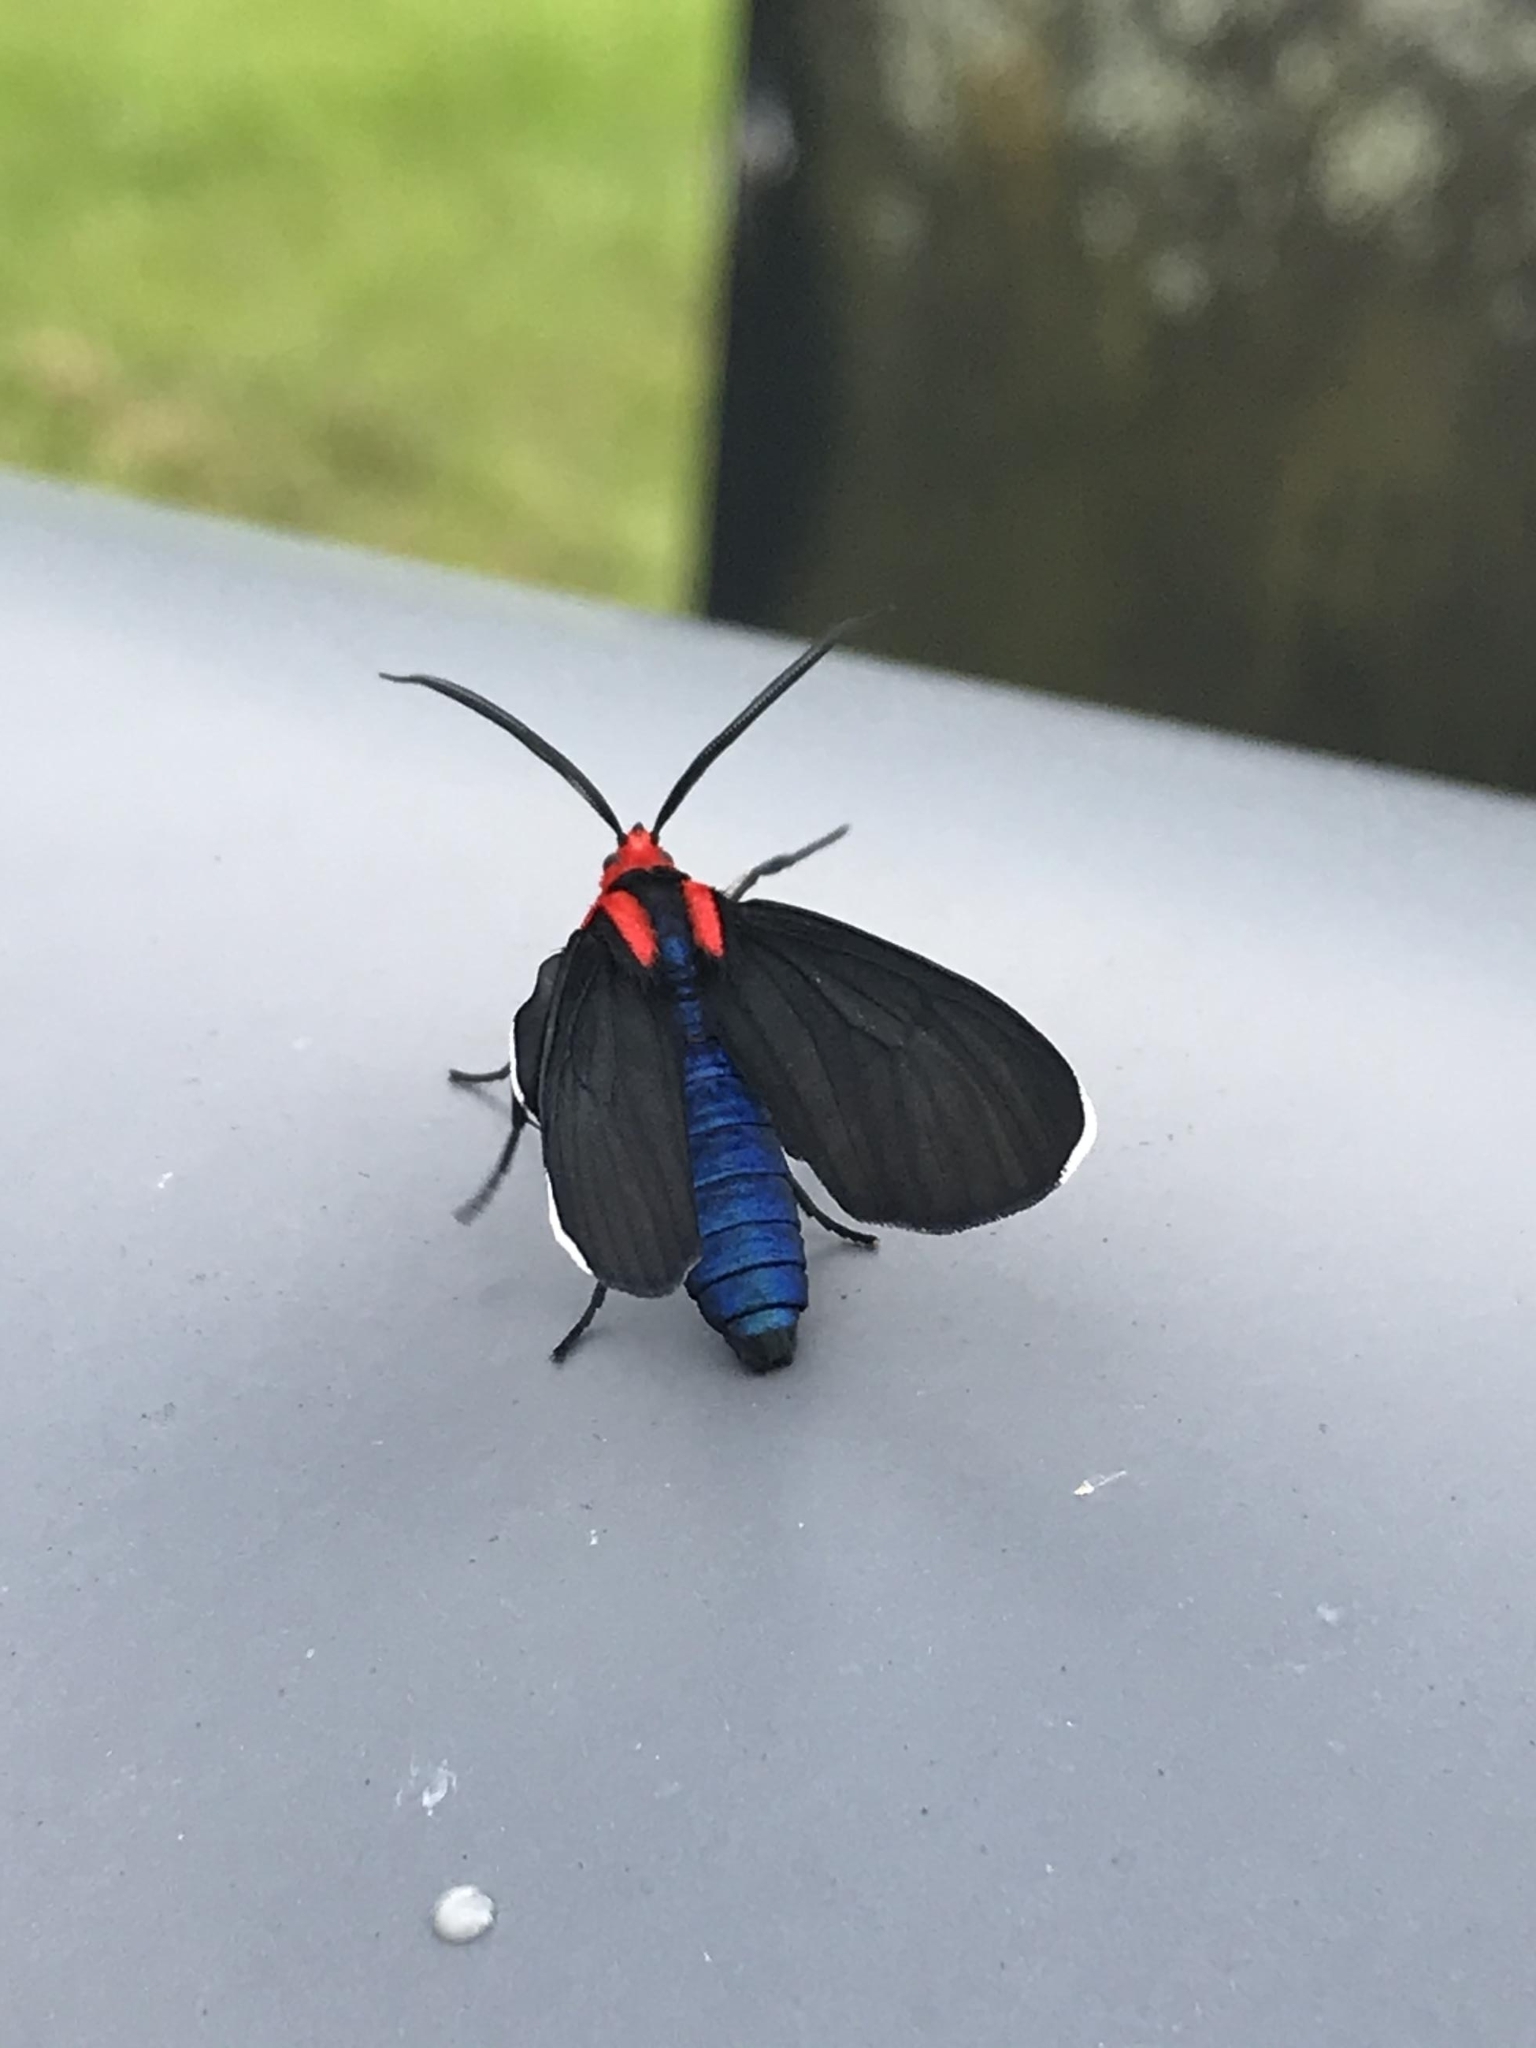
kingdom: Animalia
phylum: Arthropoda
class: Insecta
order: Lepidoptera
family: Erebidae
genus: Ctenucha
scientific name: Ctenucha rubroscapus
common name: Red-shouldered ctenucha
